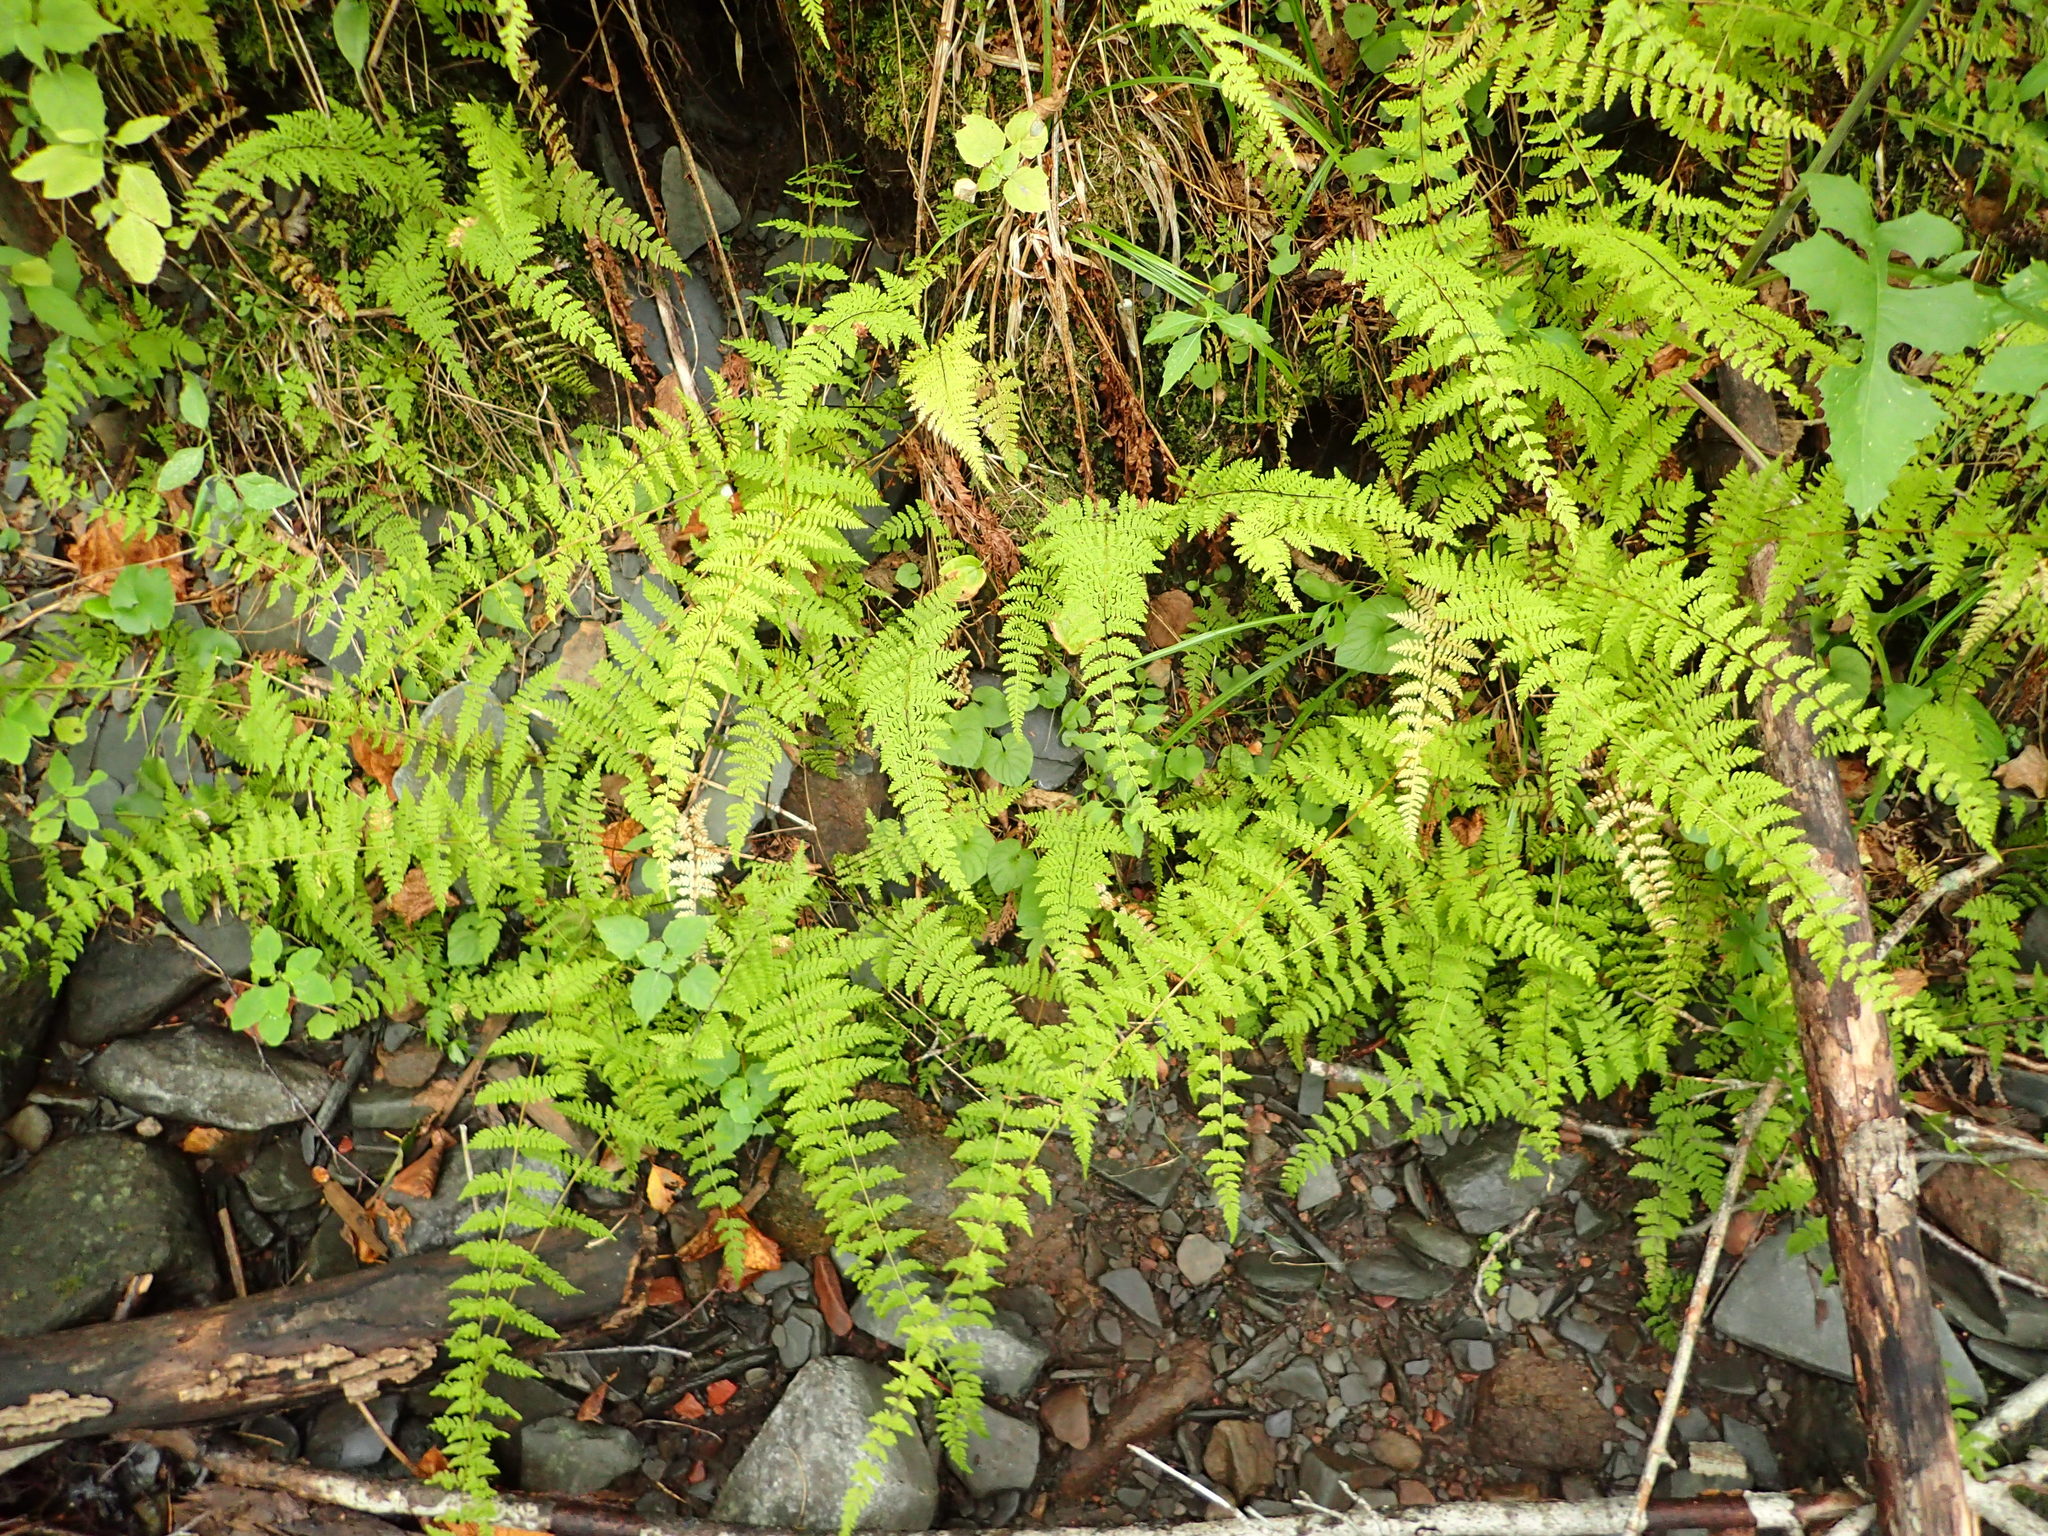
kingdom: Plantae
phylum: Tracheophyta
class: Polypodiopsida
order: Polypodiales
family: Cystopteridaceae
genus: Cystopteris
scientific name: Cystopteris bulbifera
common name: Bulblet bladder fern
